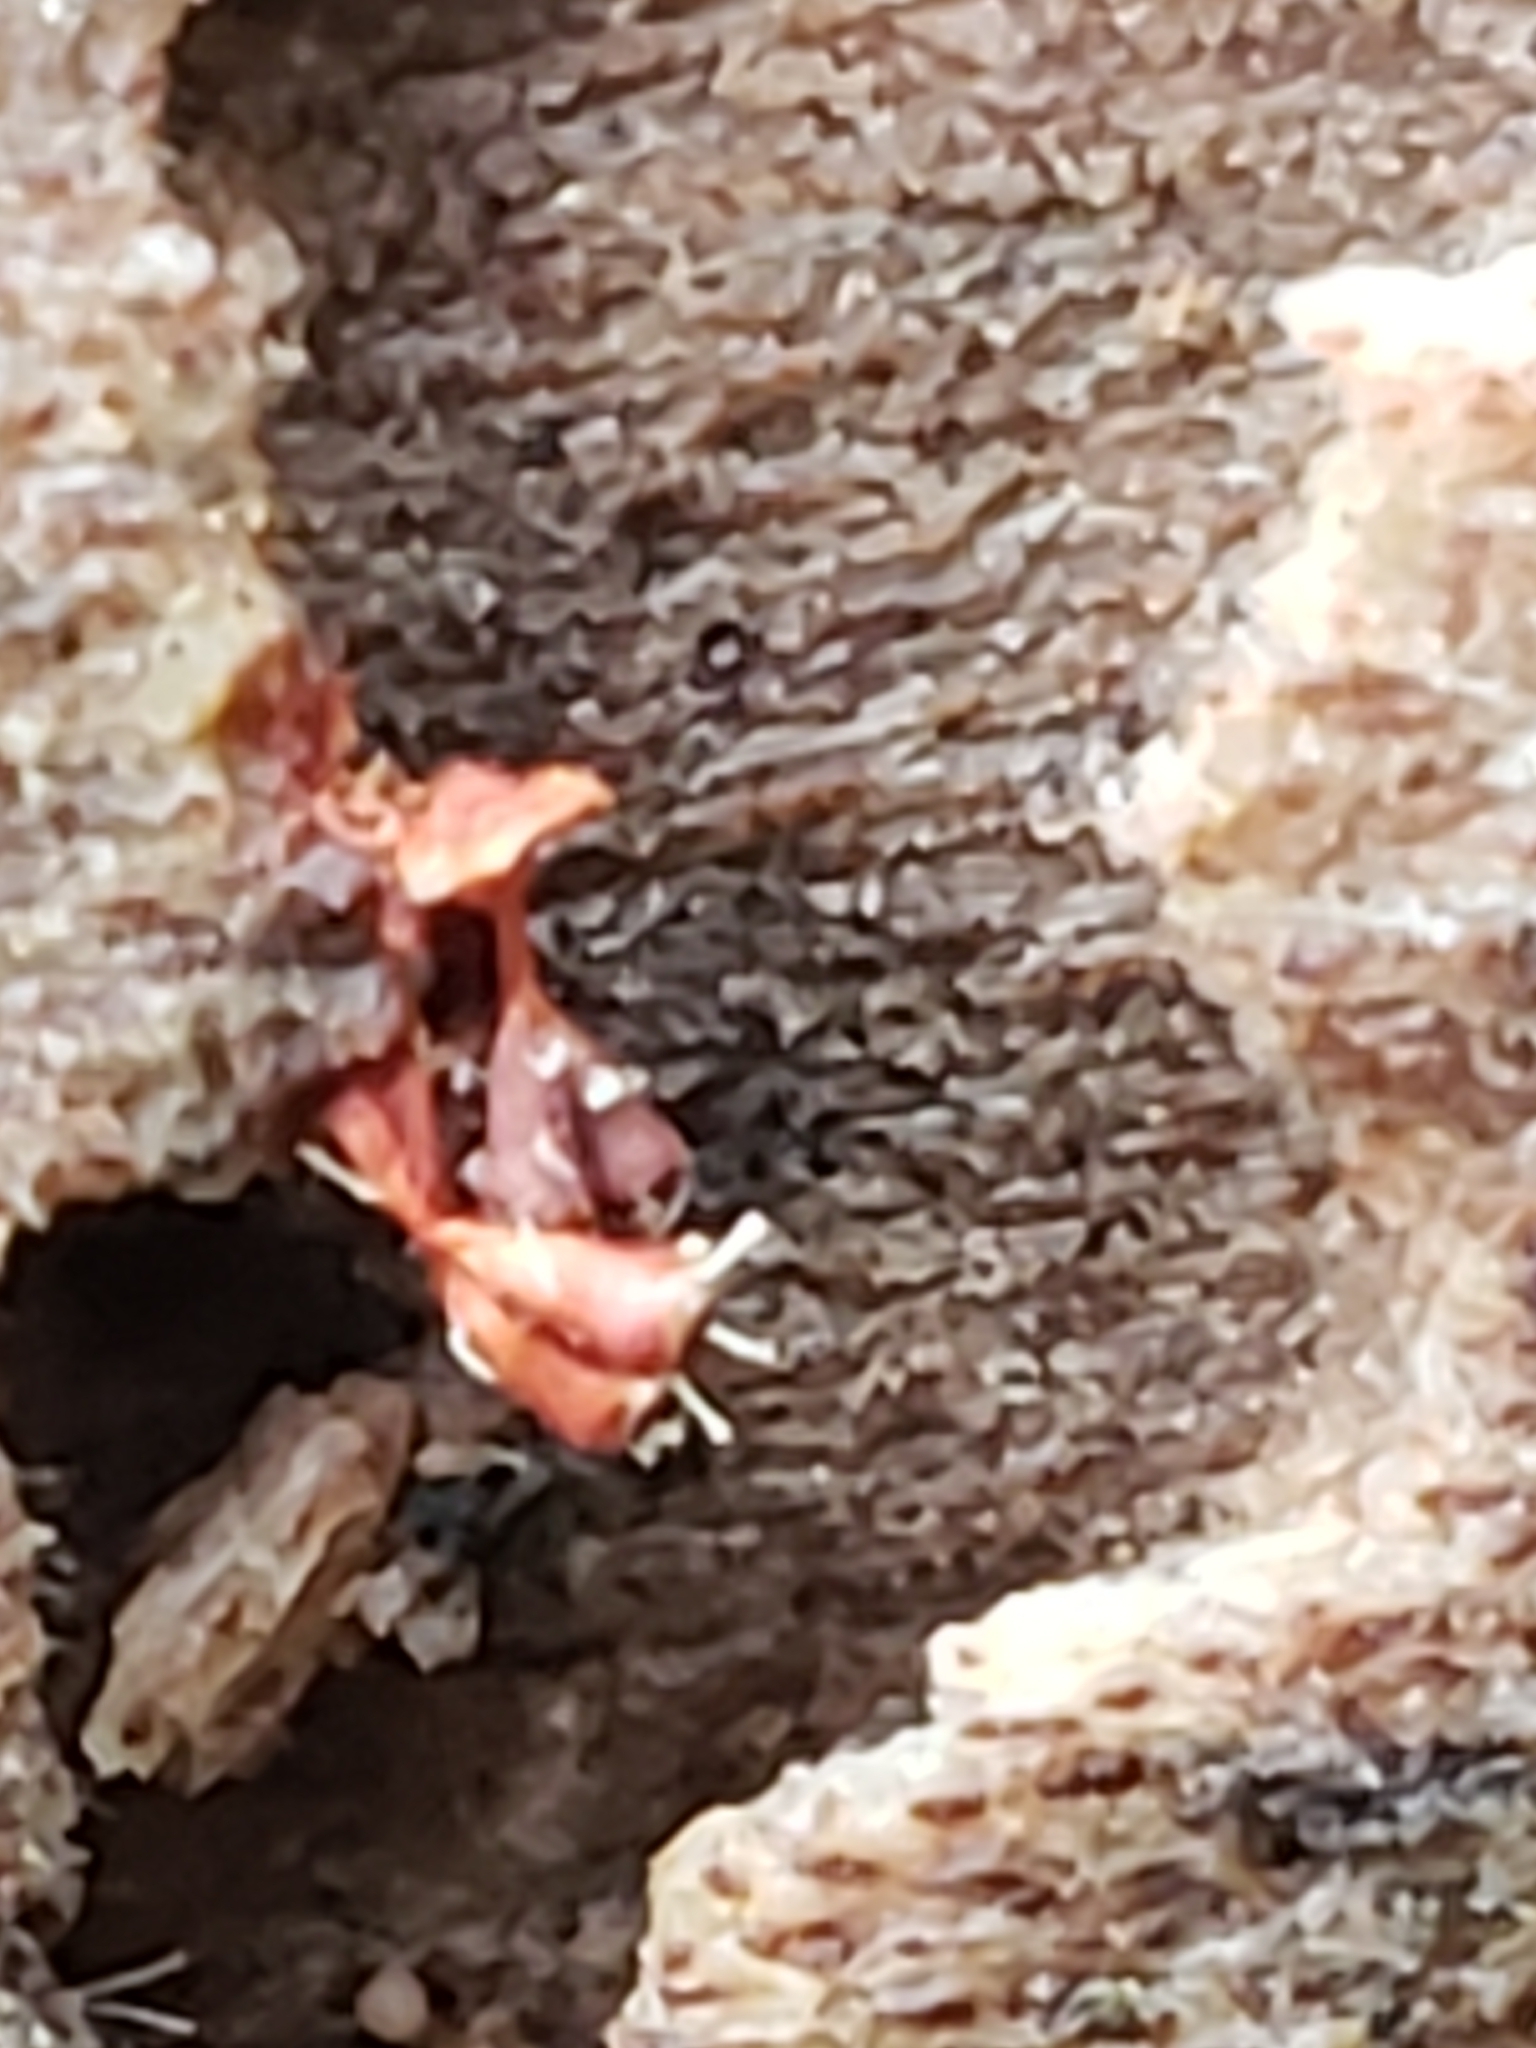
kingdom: Protozoa
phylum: Mycetozoa
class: Myxomycetes
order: Trichiales
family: Trichiaceae
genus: Metatrichia
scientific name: Metatrichia vesparia
